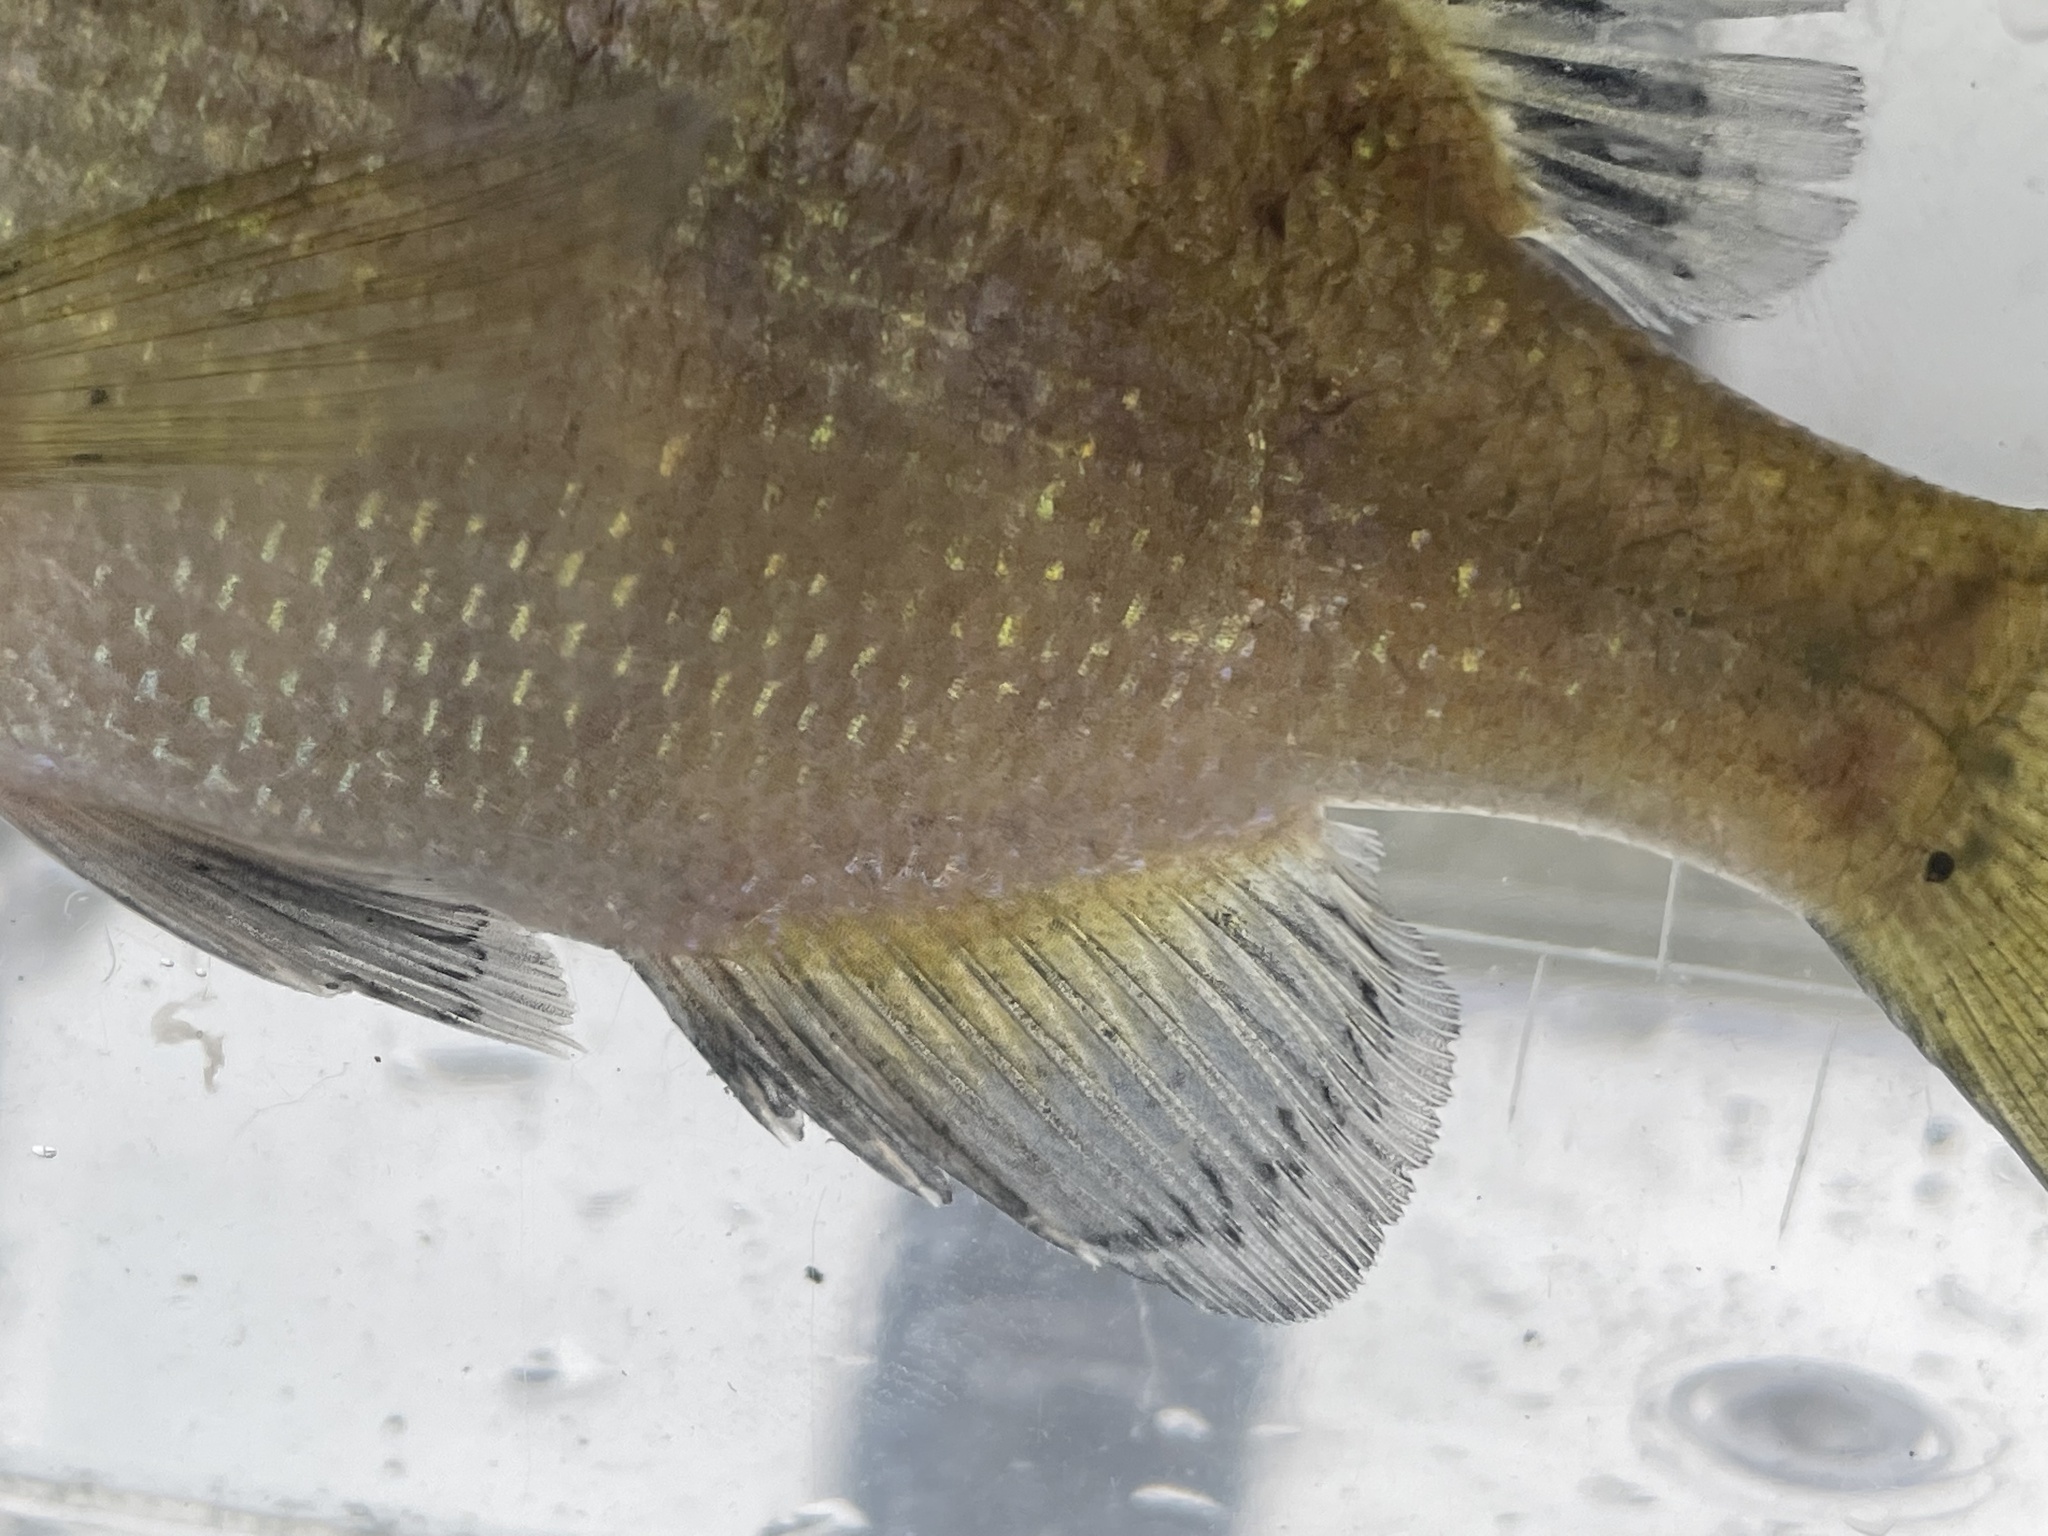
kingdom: Animalia
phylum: Chordata
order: Perciformes
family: Centrarchidae
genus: Lepomis
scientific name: Lepomis macrochirus
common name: Bluegill
